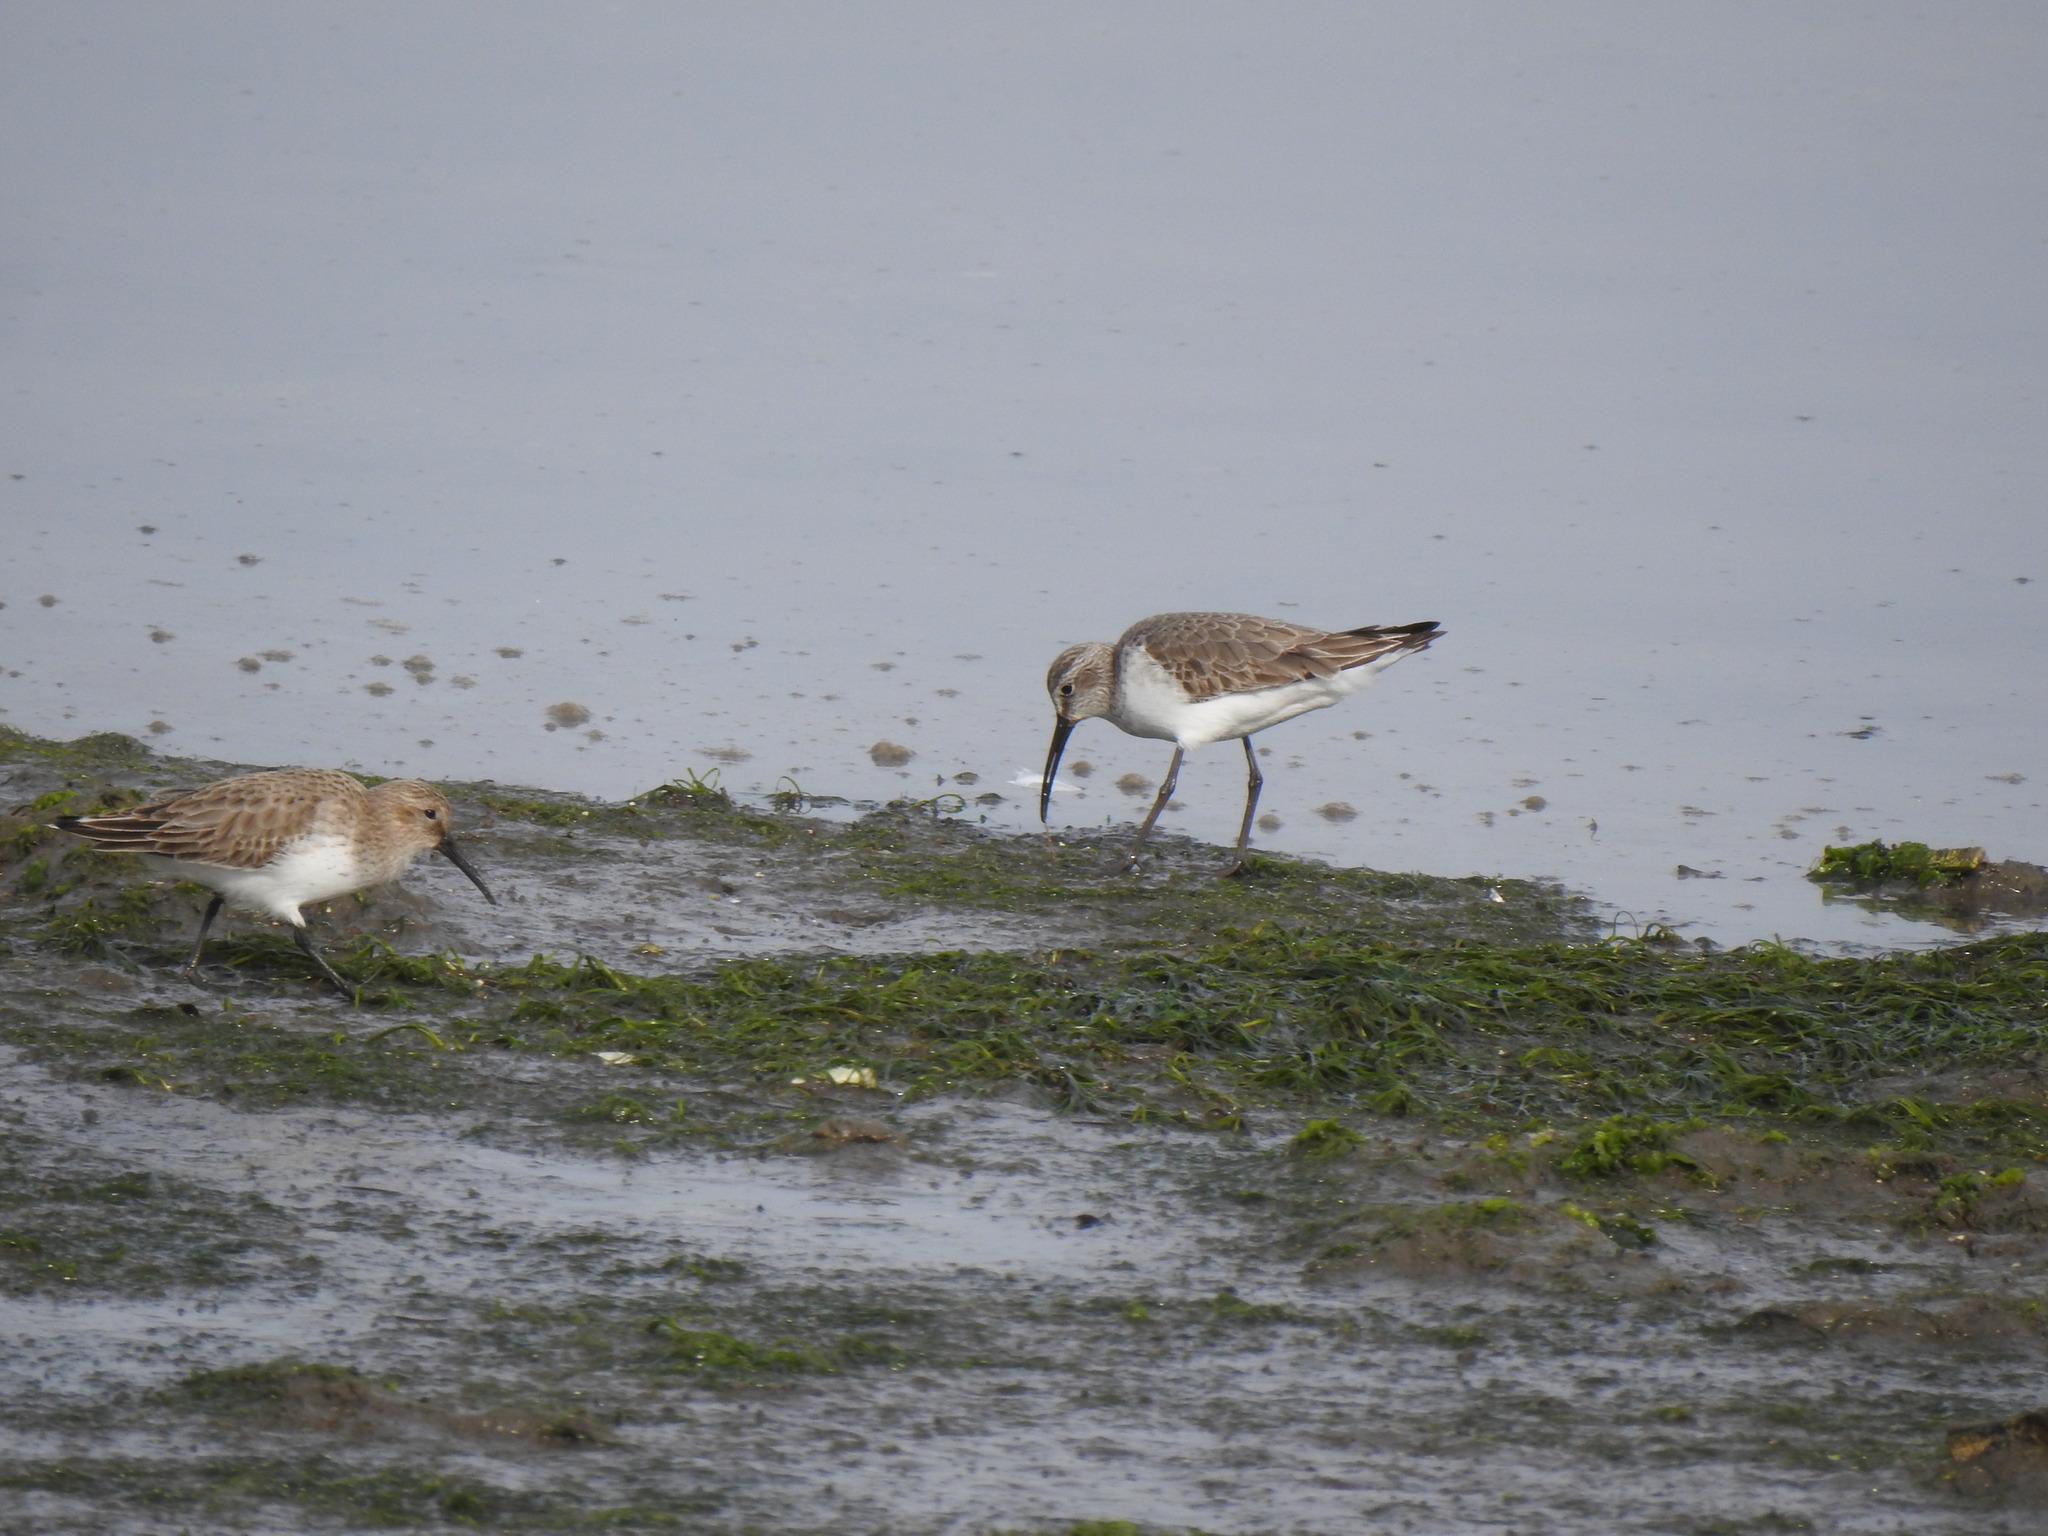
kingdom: Animalia
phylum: Chordata
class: Aves
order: Charadriiformes
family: Scolopacidae
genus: Calidris
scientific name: Calidris ferruginea
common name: Curlew sandpiper
